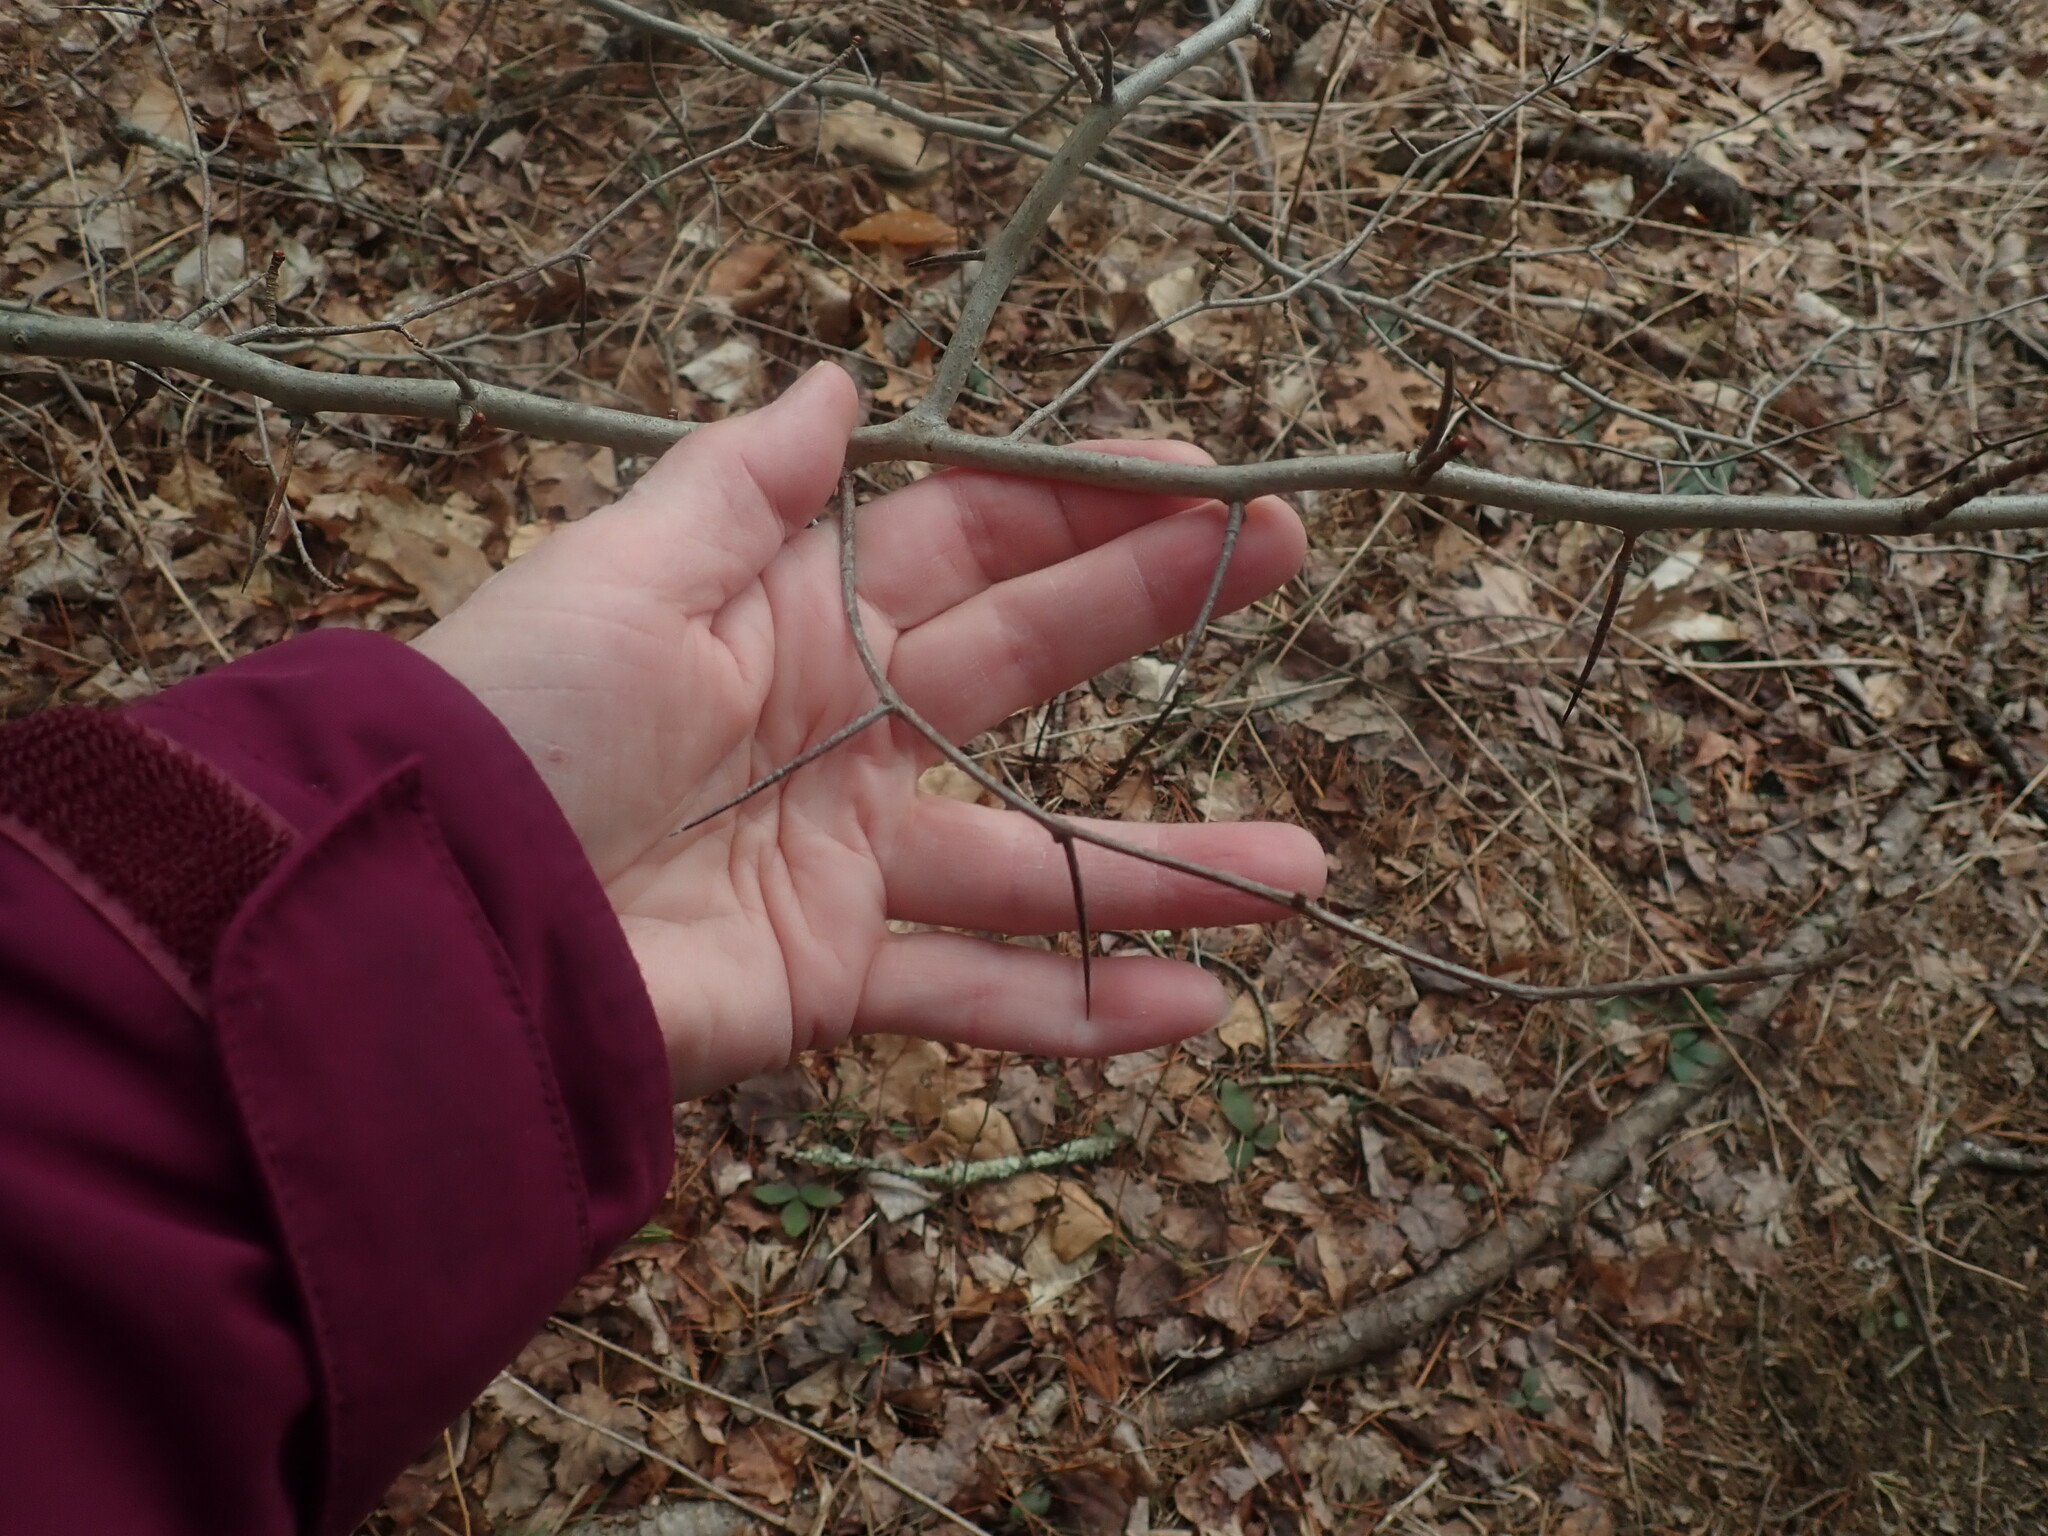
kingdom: Plantae
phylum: Tracheophyta
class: Magnoliopsida
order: Rosales
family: Rosaceae
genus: Crataegus
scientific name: Crataegus
